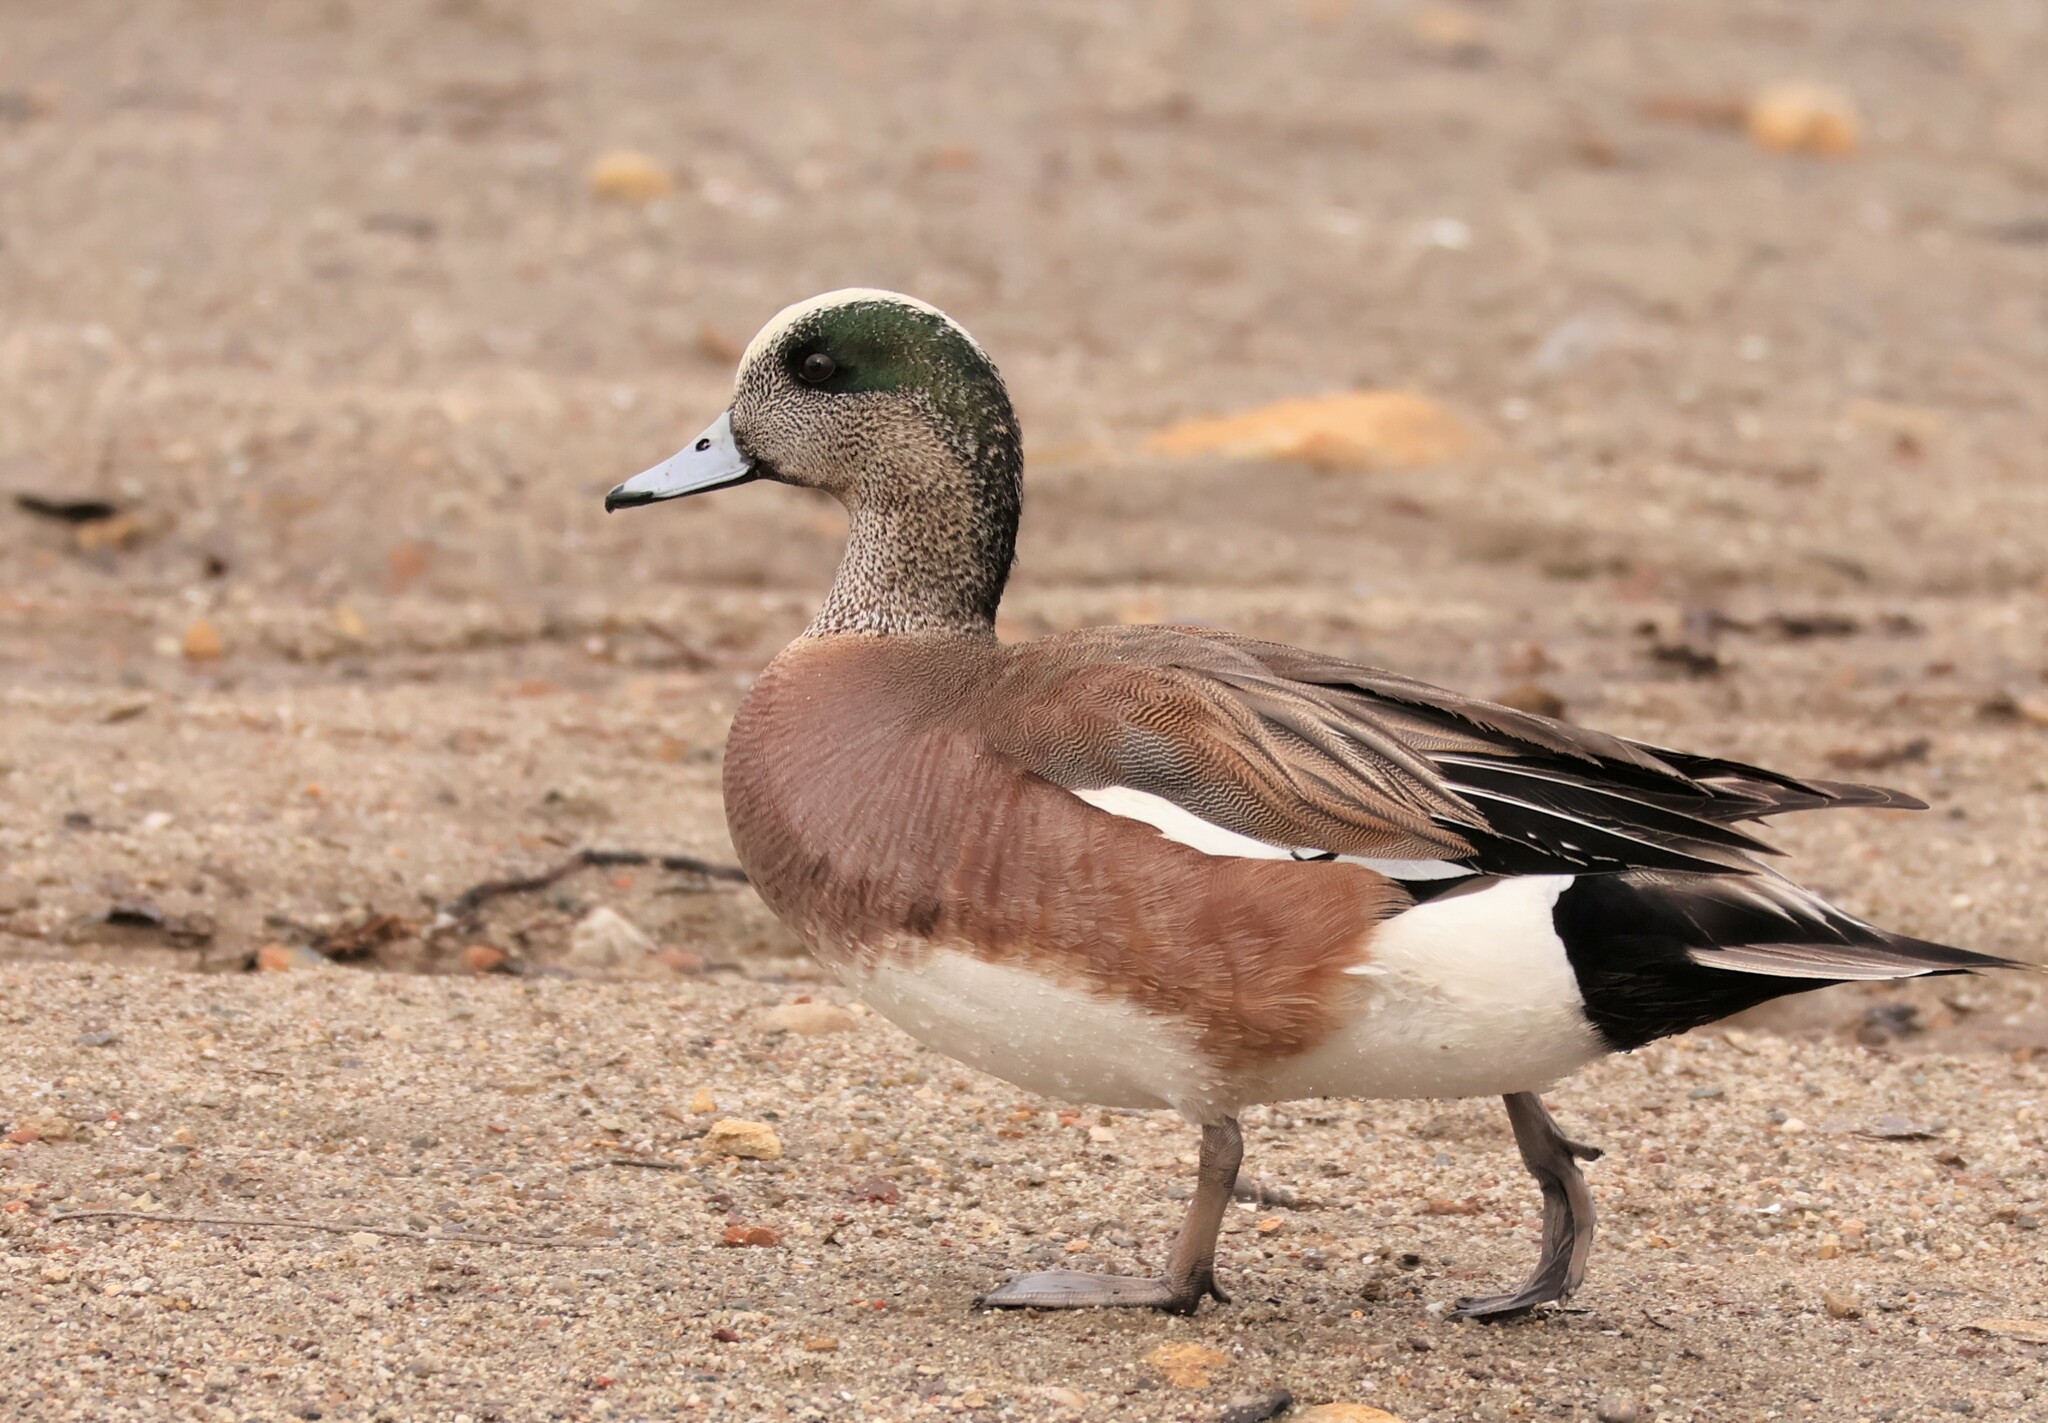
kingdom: Animalia
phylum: Chordata
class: Aves
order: Anseriformes
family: Anatidae
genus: Mareca
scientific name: Mareca americana
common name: American wigeon
